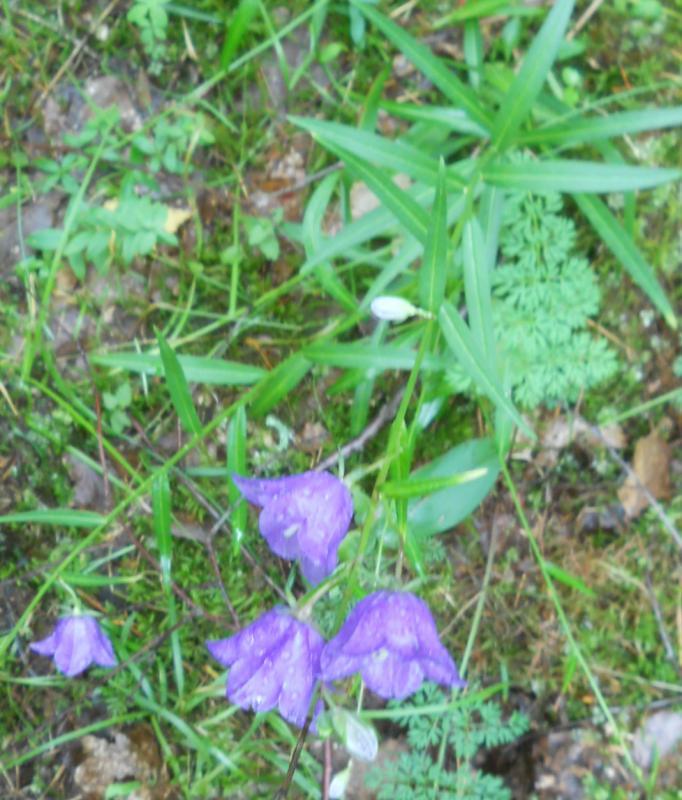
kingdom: Plantae
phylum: Tracheophyta
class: Magnoliopsida
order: Asterales
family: Campanulaceae
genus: Campanula
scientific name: Campanula persicifolia
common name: Peach-leaved bellflower
